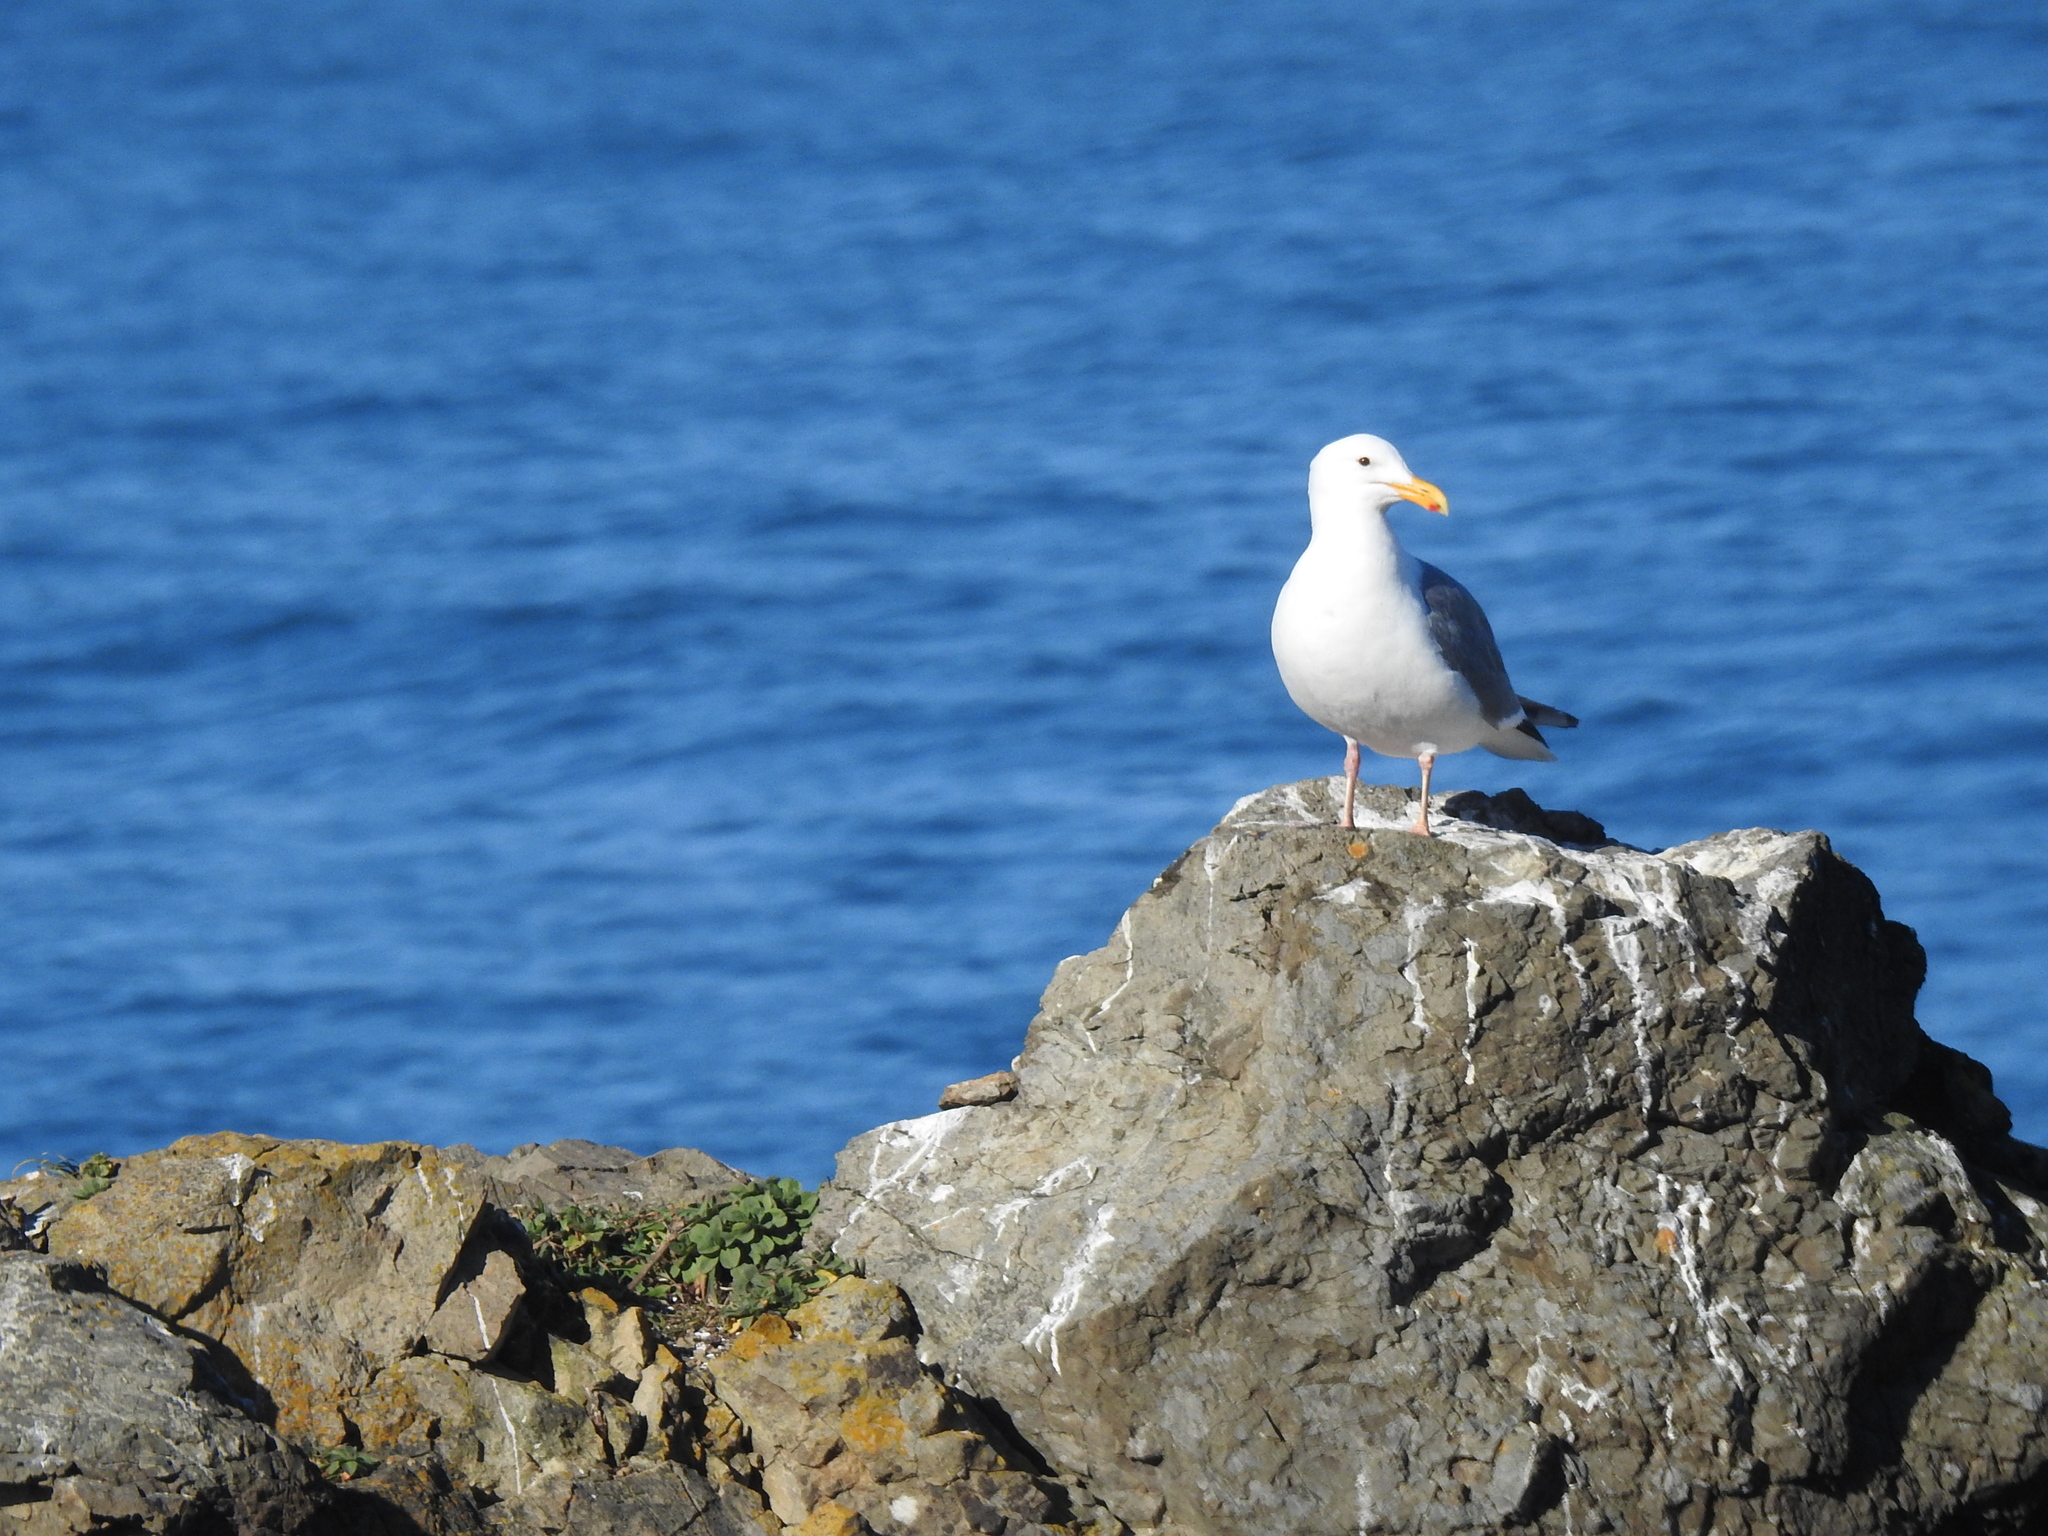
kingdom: Animalia
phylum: Chordata
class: Aves
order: Charadriiformes
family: Laridae
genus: Larus
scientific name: Larus occidentalis
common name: Western gull
